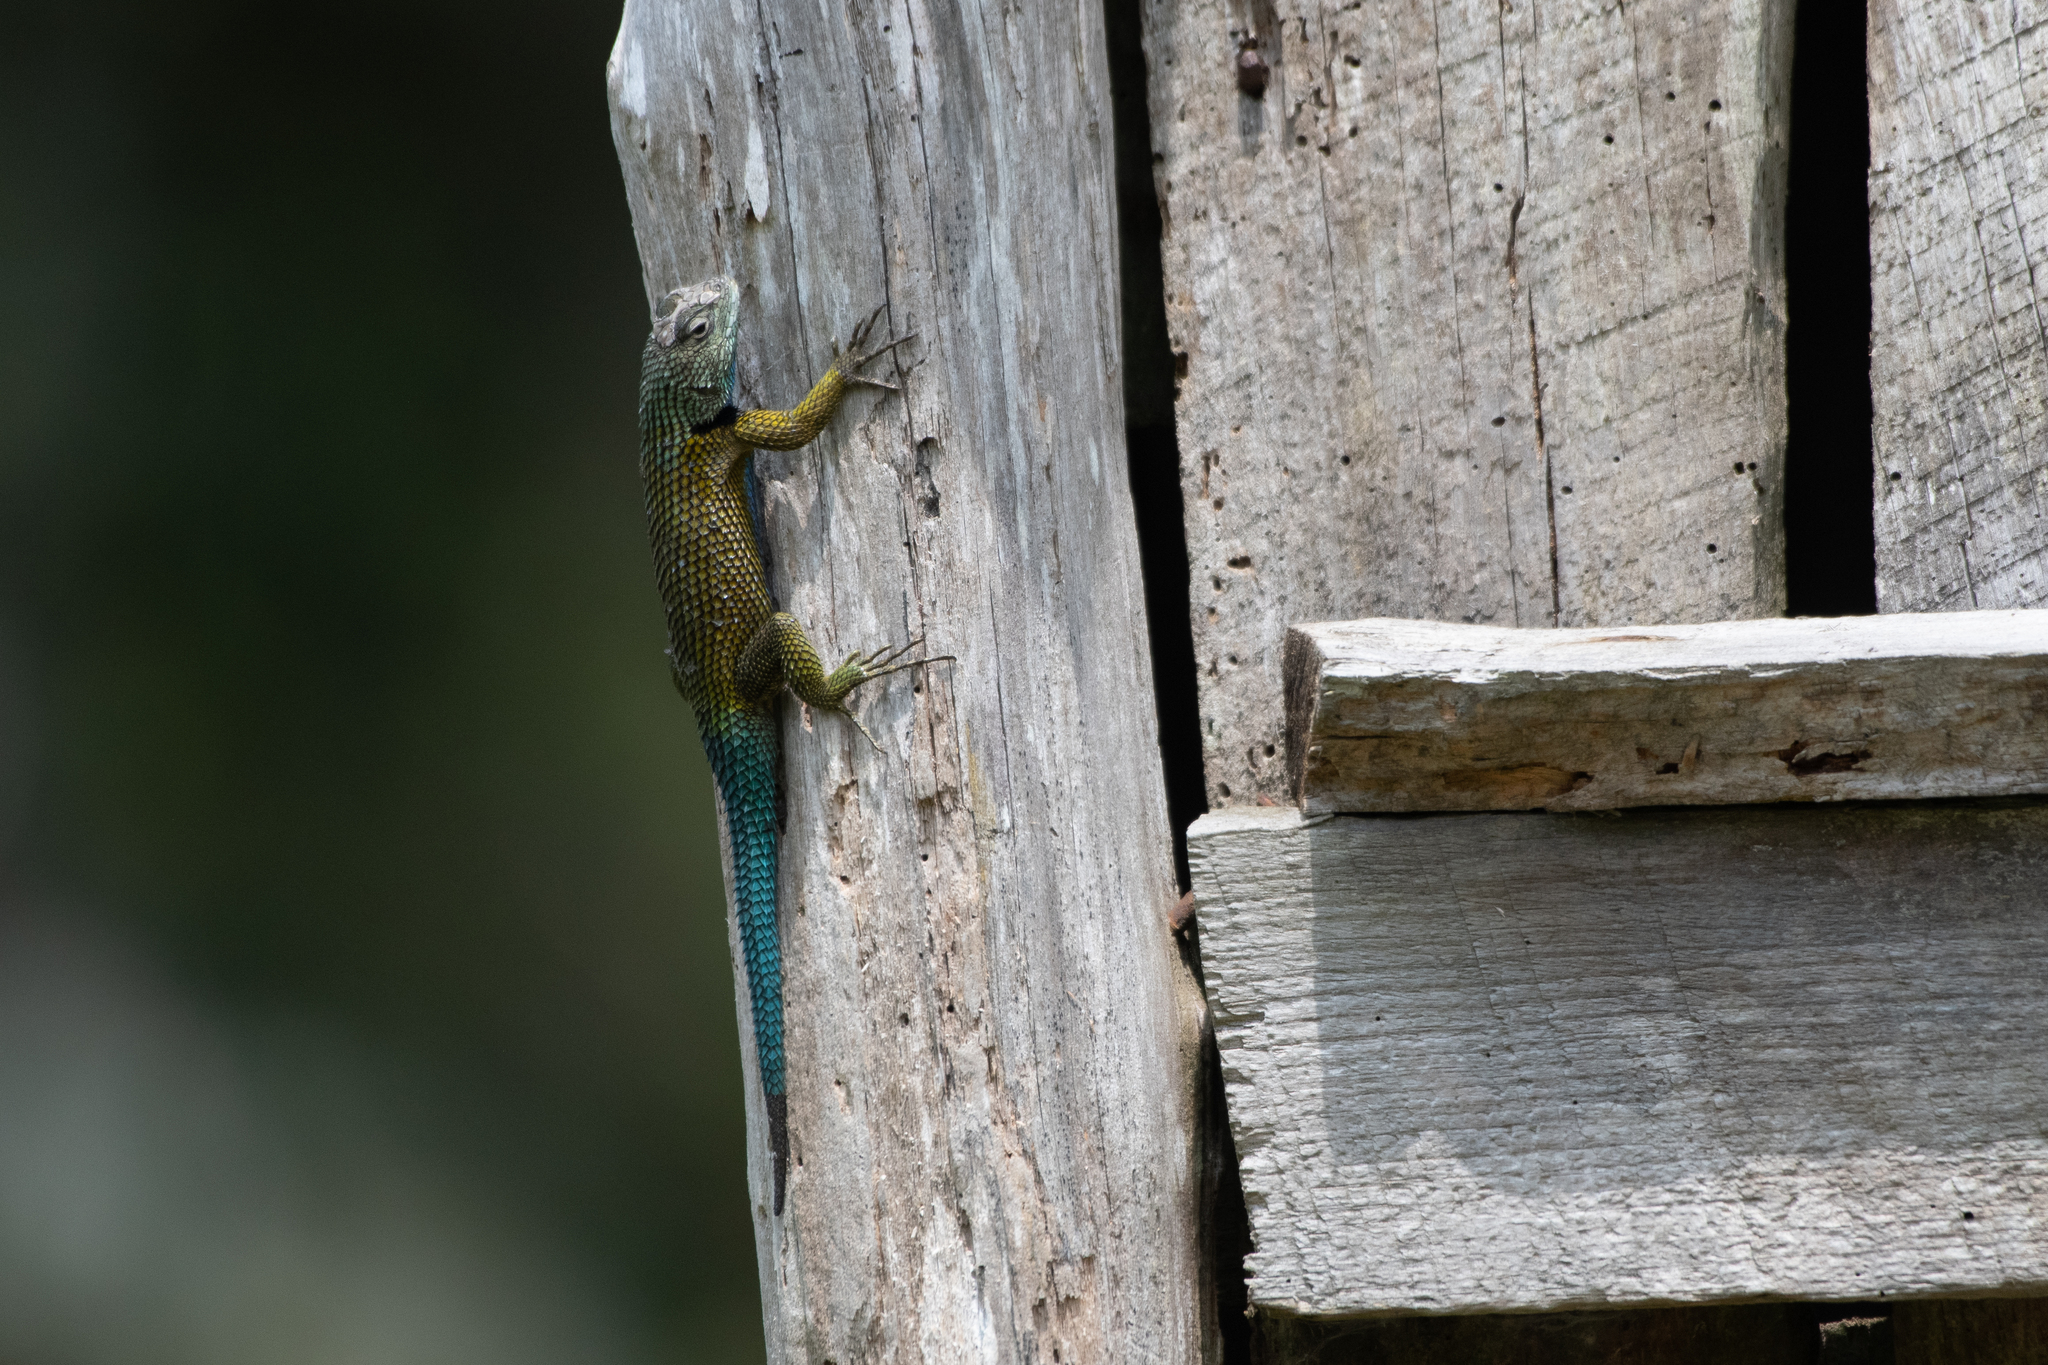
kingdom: Animalia
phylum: Chordata
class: Squamata
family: Phrynosomatidae
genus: Sceloporus
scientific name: Sceloporus esperanzae
